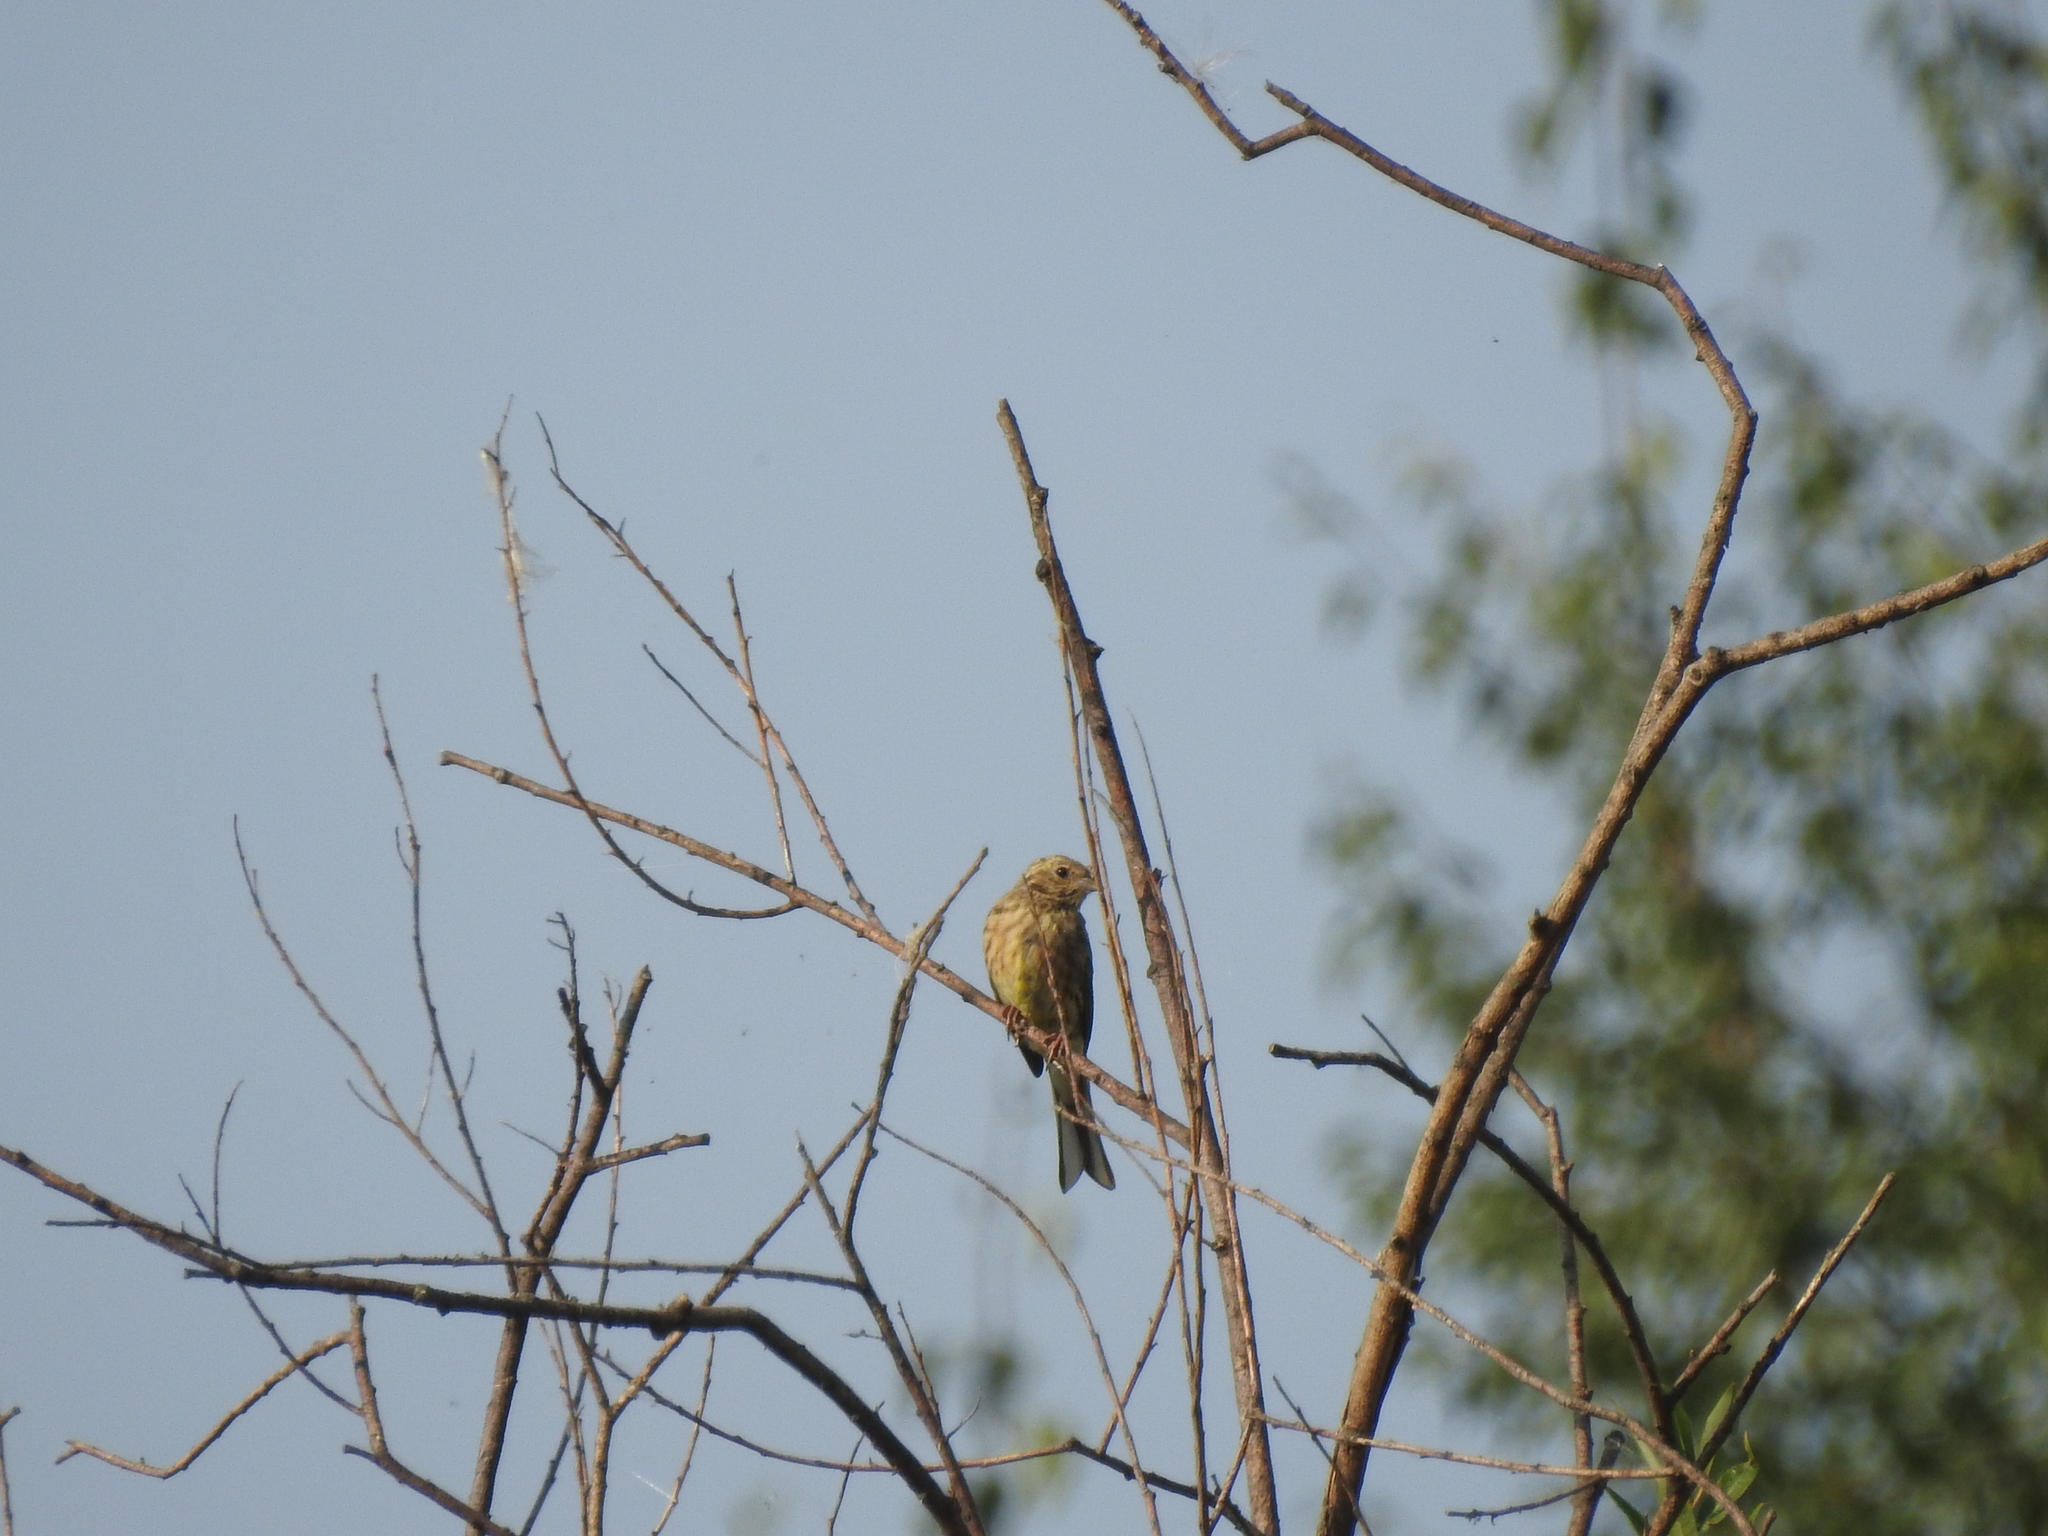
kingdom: Animalia
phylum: Chordata
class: Aves
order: Passeriformes
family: Emberizidae
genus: Emberiza
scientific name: Emberiza citrinella
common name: Yellowhammer
